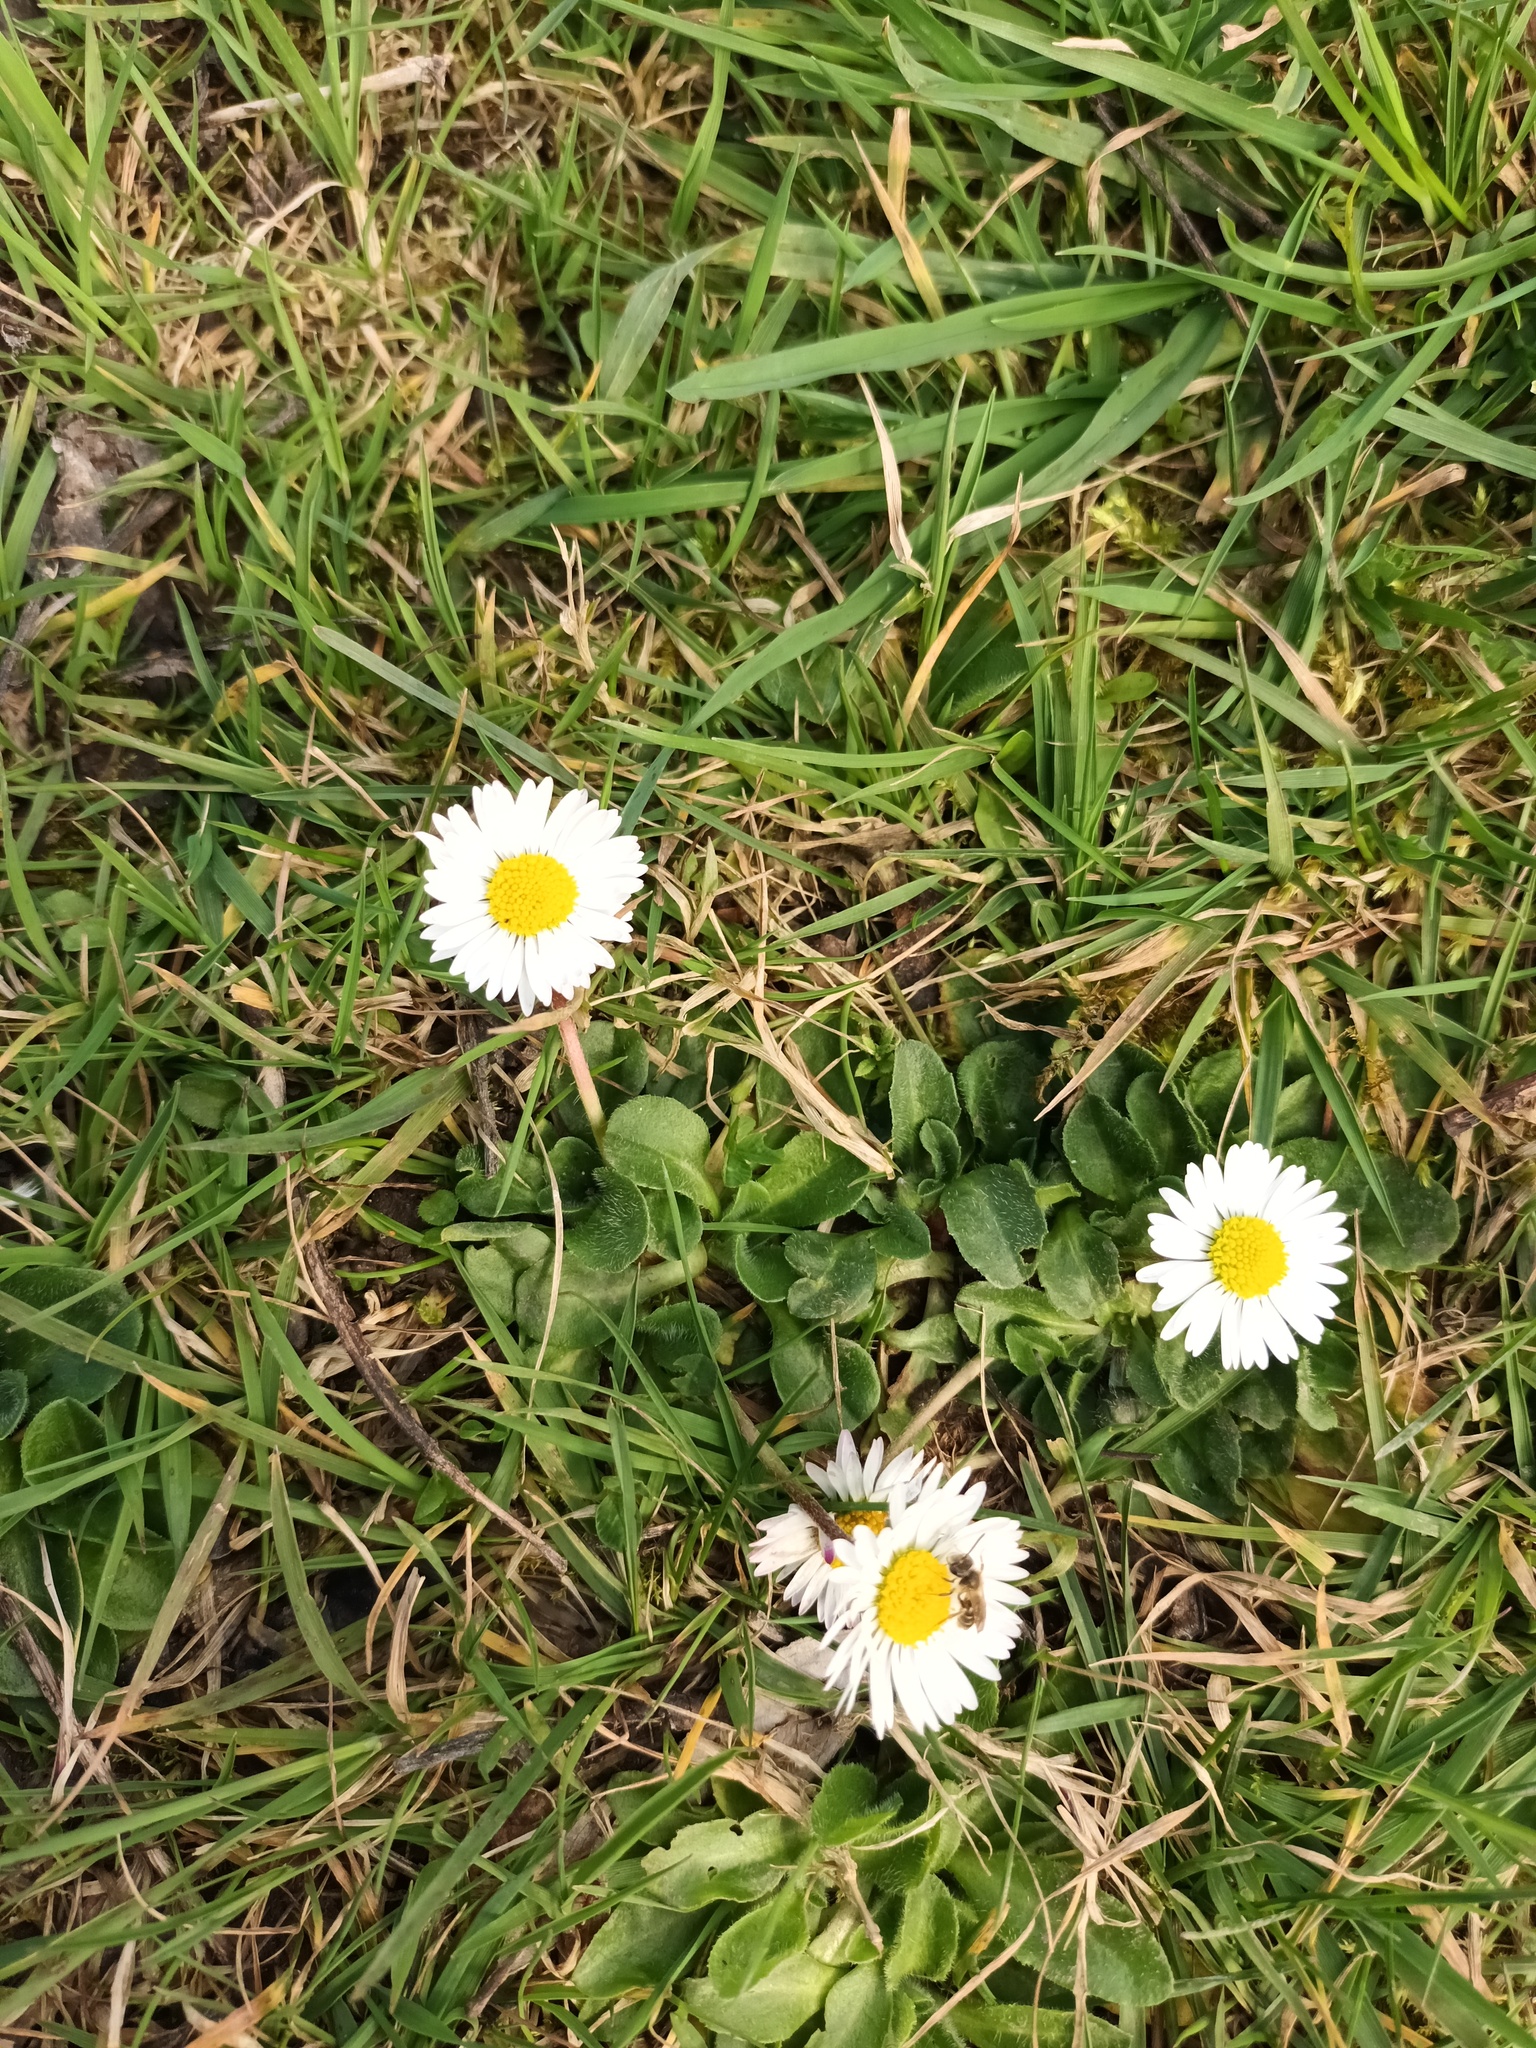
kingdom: Plantae
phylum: Tracheophyta
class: Magnoliopsida
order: Asterales
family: Asteraceae
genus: Bellis
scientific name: Bellis perennis
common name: Lawndaisy
